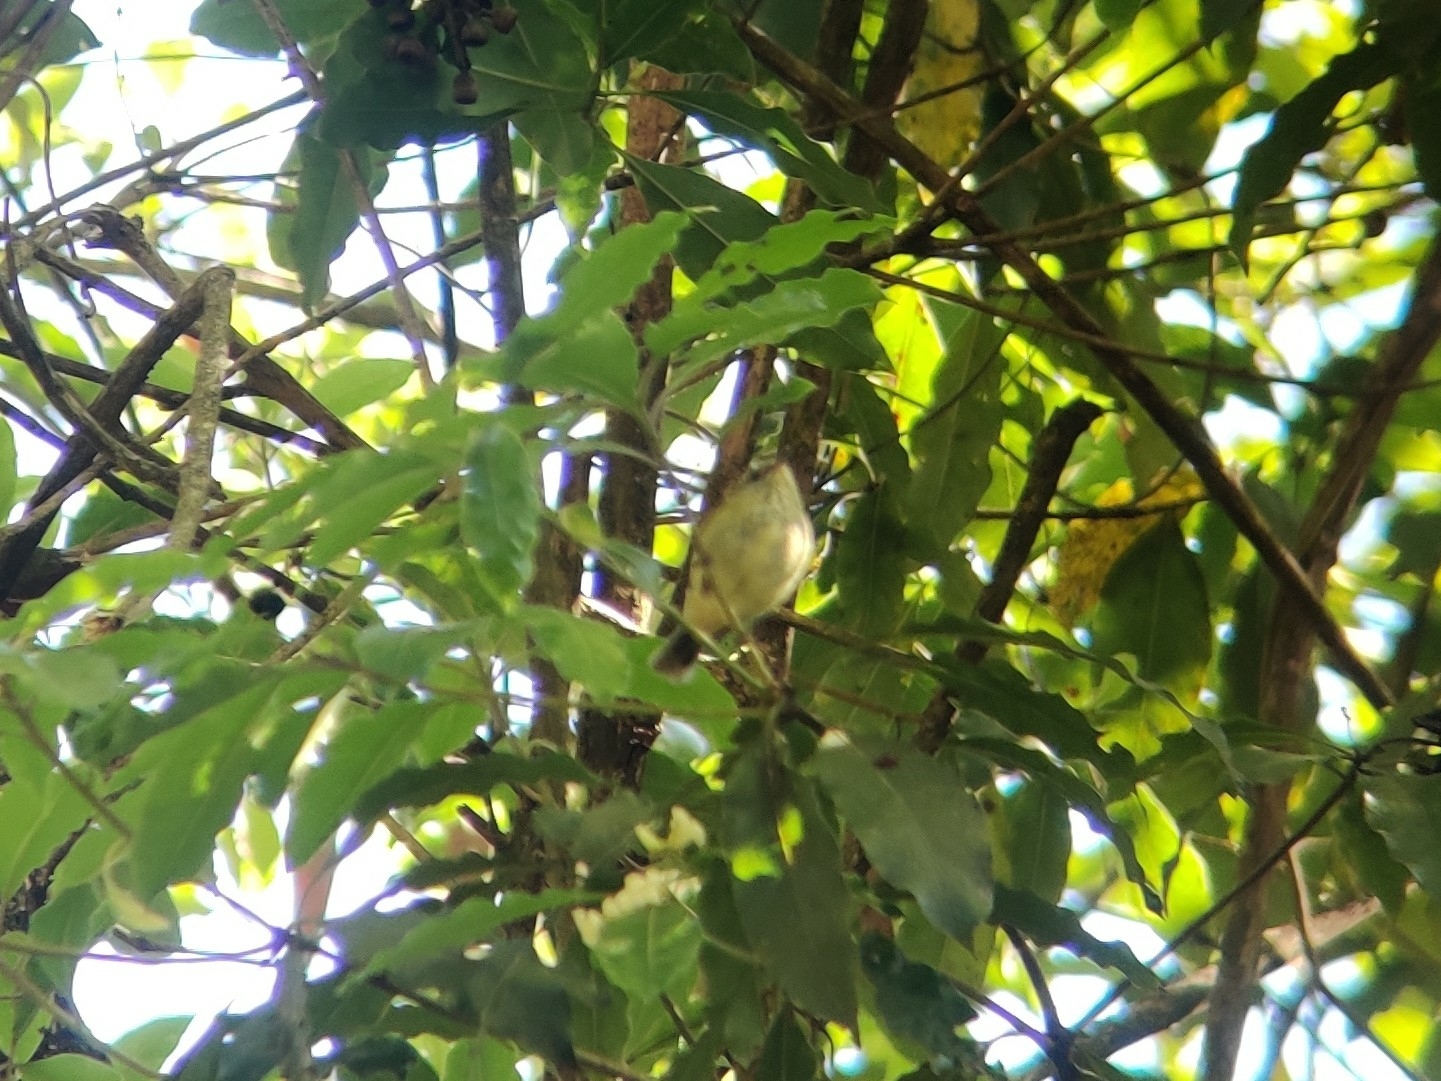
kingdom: Animalia
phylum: Chordata
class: Aves
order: Passeriformes
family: Acanthizidae
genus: Acanthiza
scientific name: Acanthiza lineata
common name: Striated thornbill
